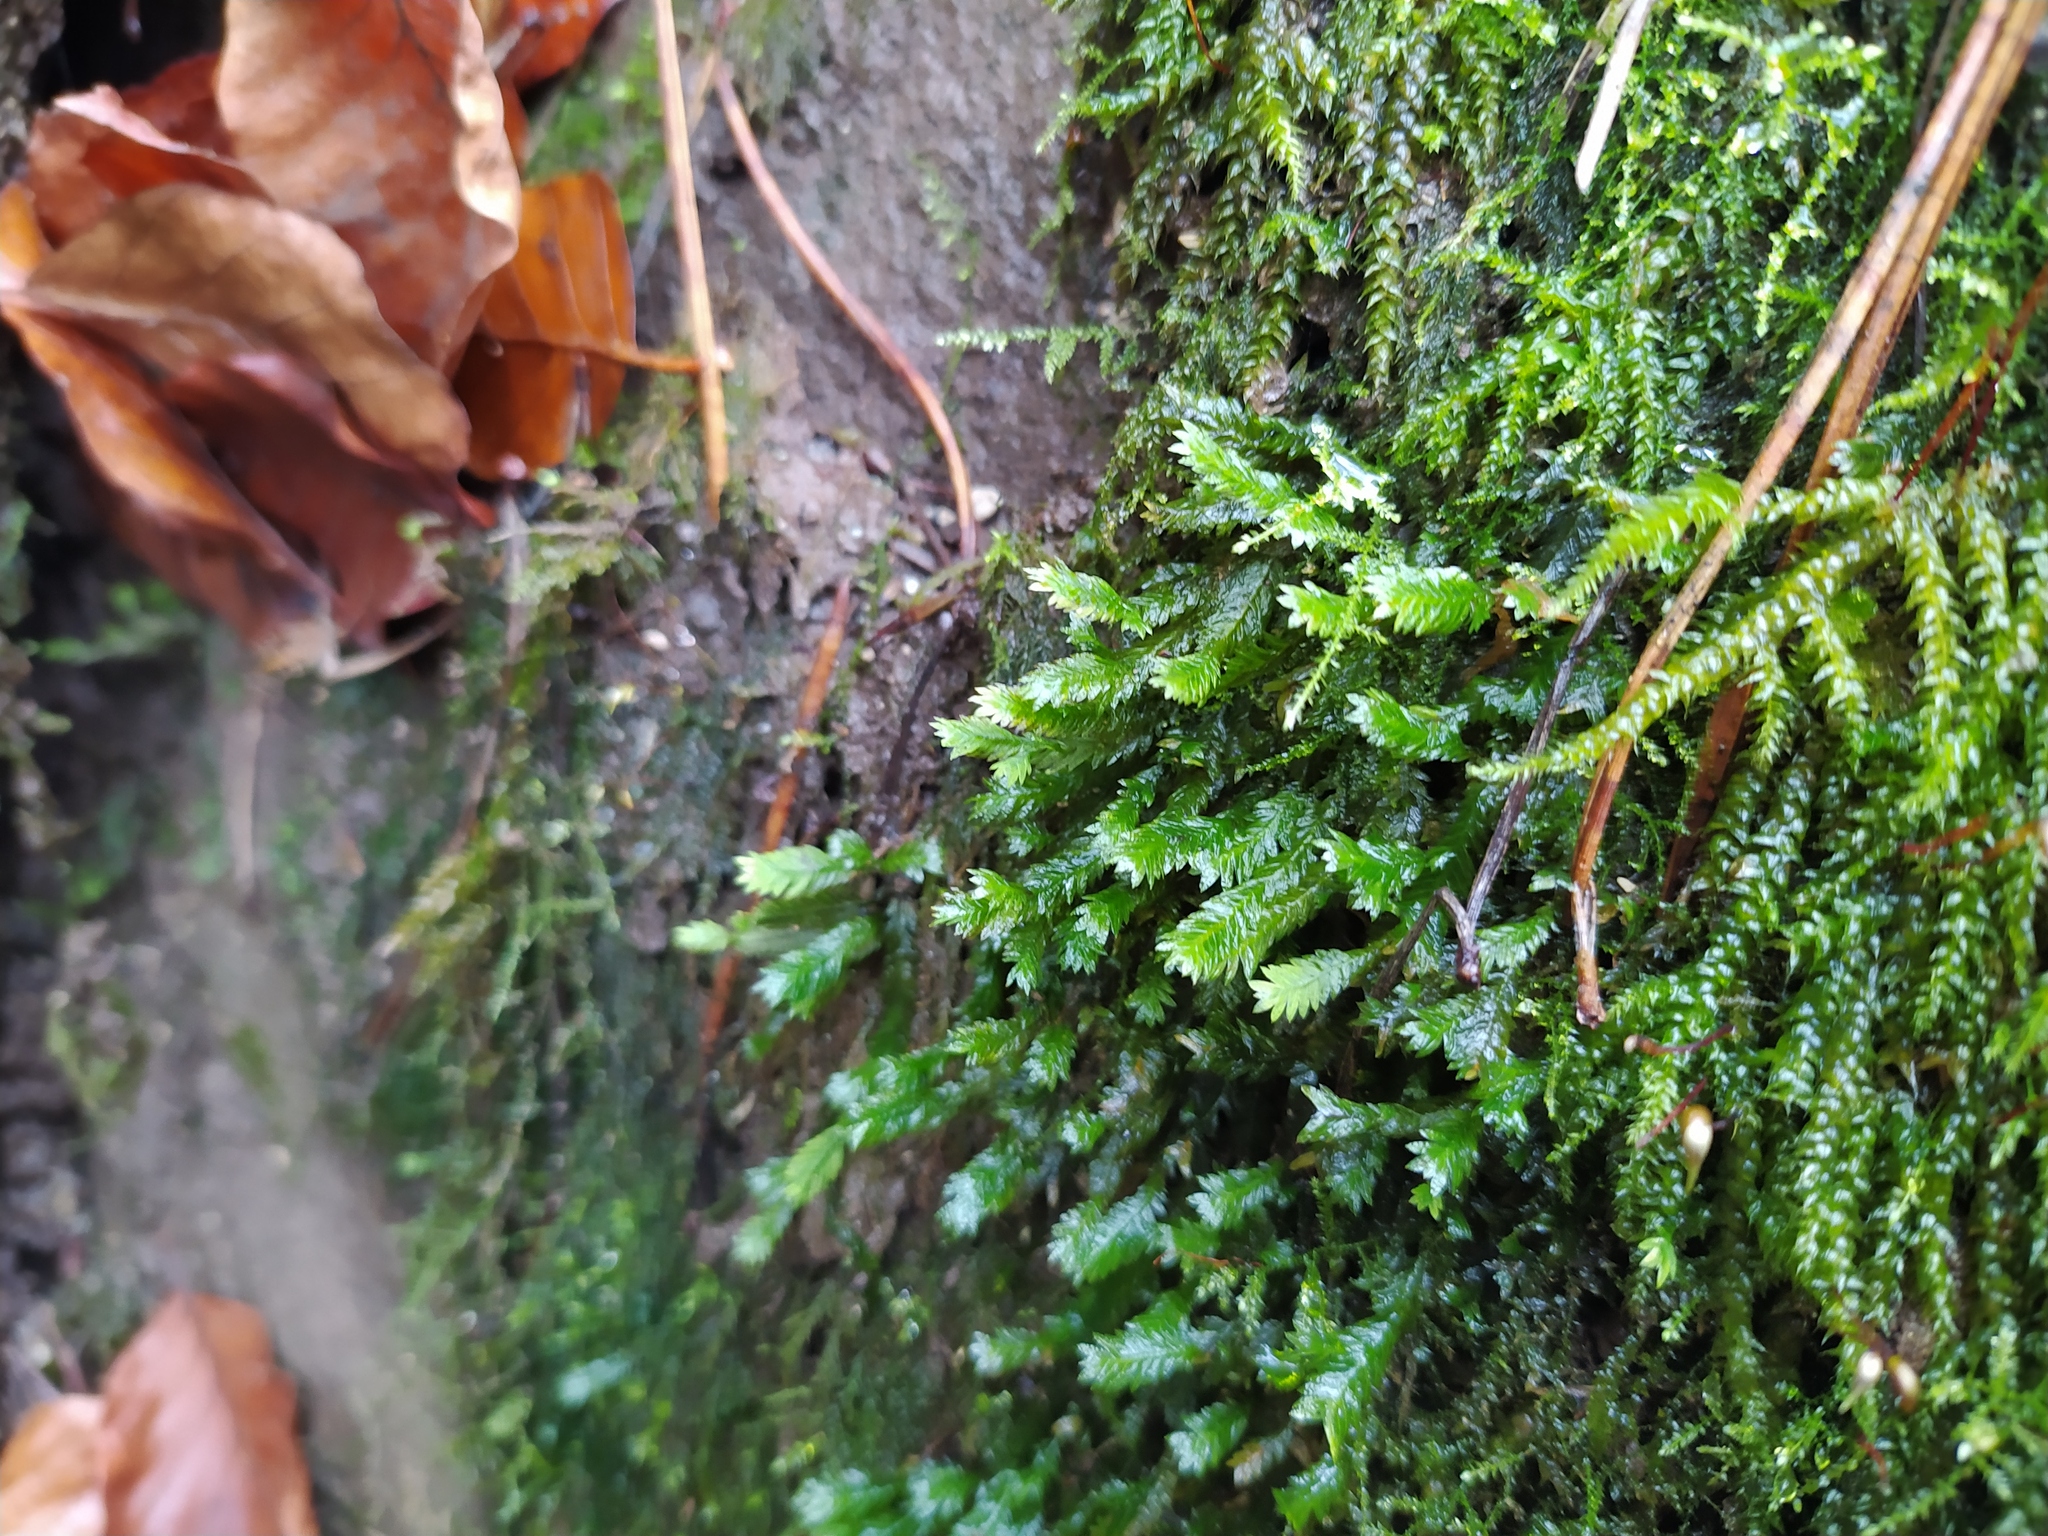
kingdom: Plantae
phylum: Bryophyta
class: Bryopsida
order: Dicranales
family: Fissidentaceae
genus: Fissidens
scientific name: Fissidens taxifolius
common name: Yew-leaved pocket moss
